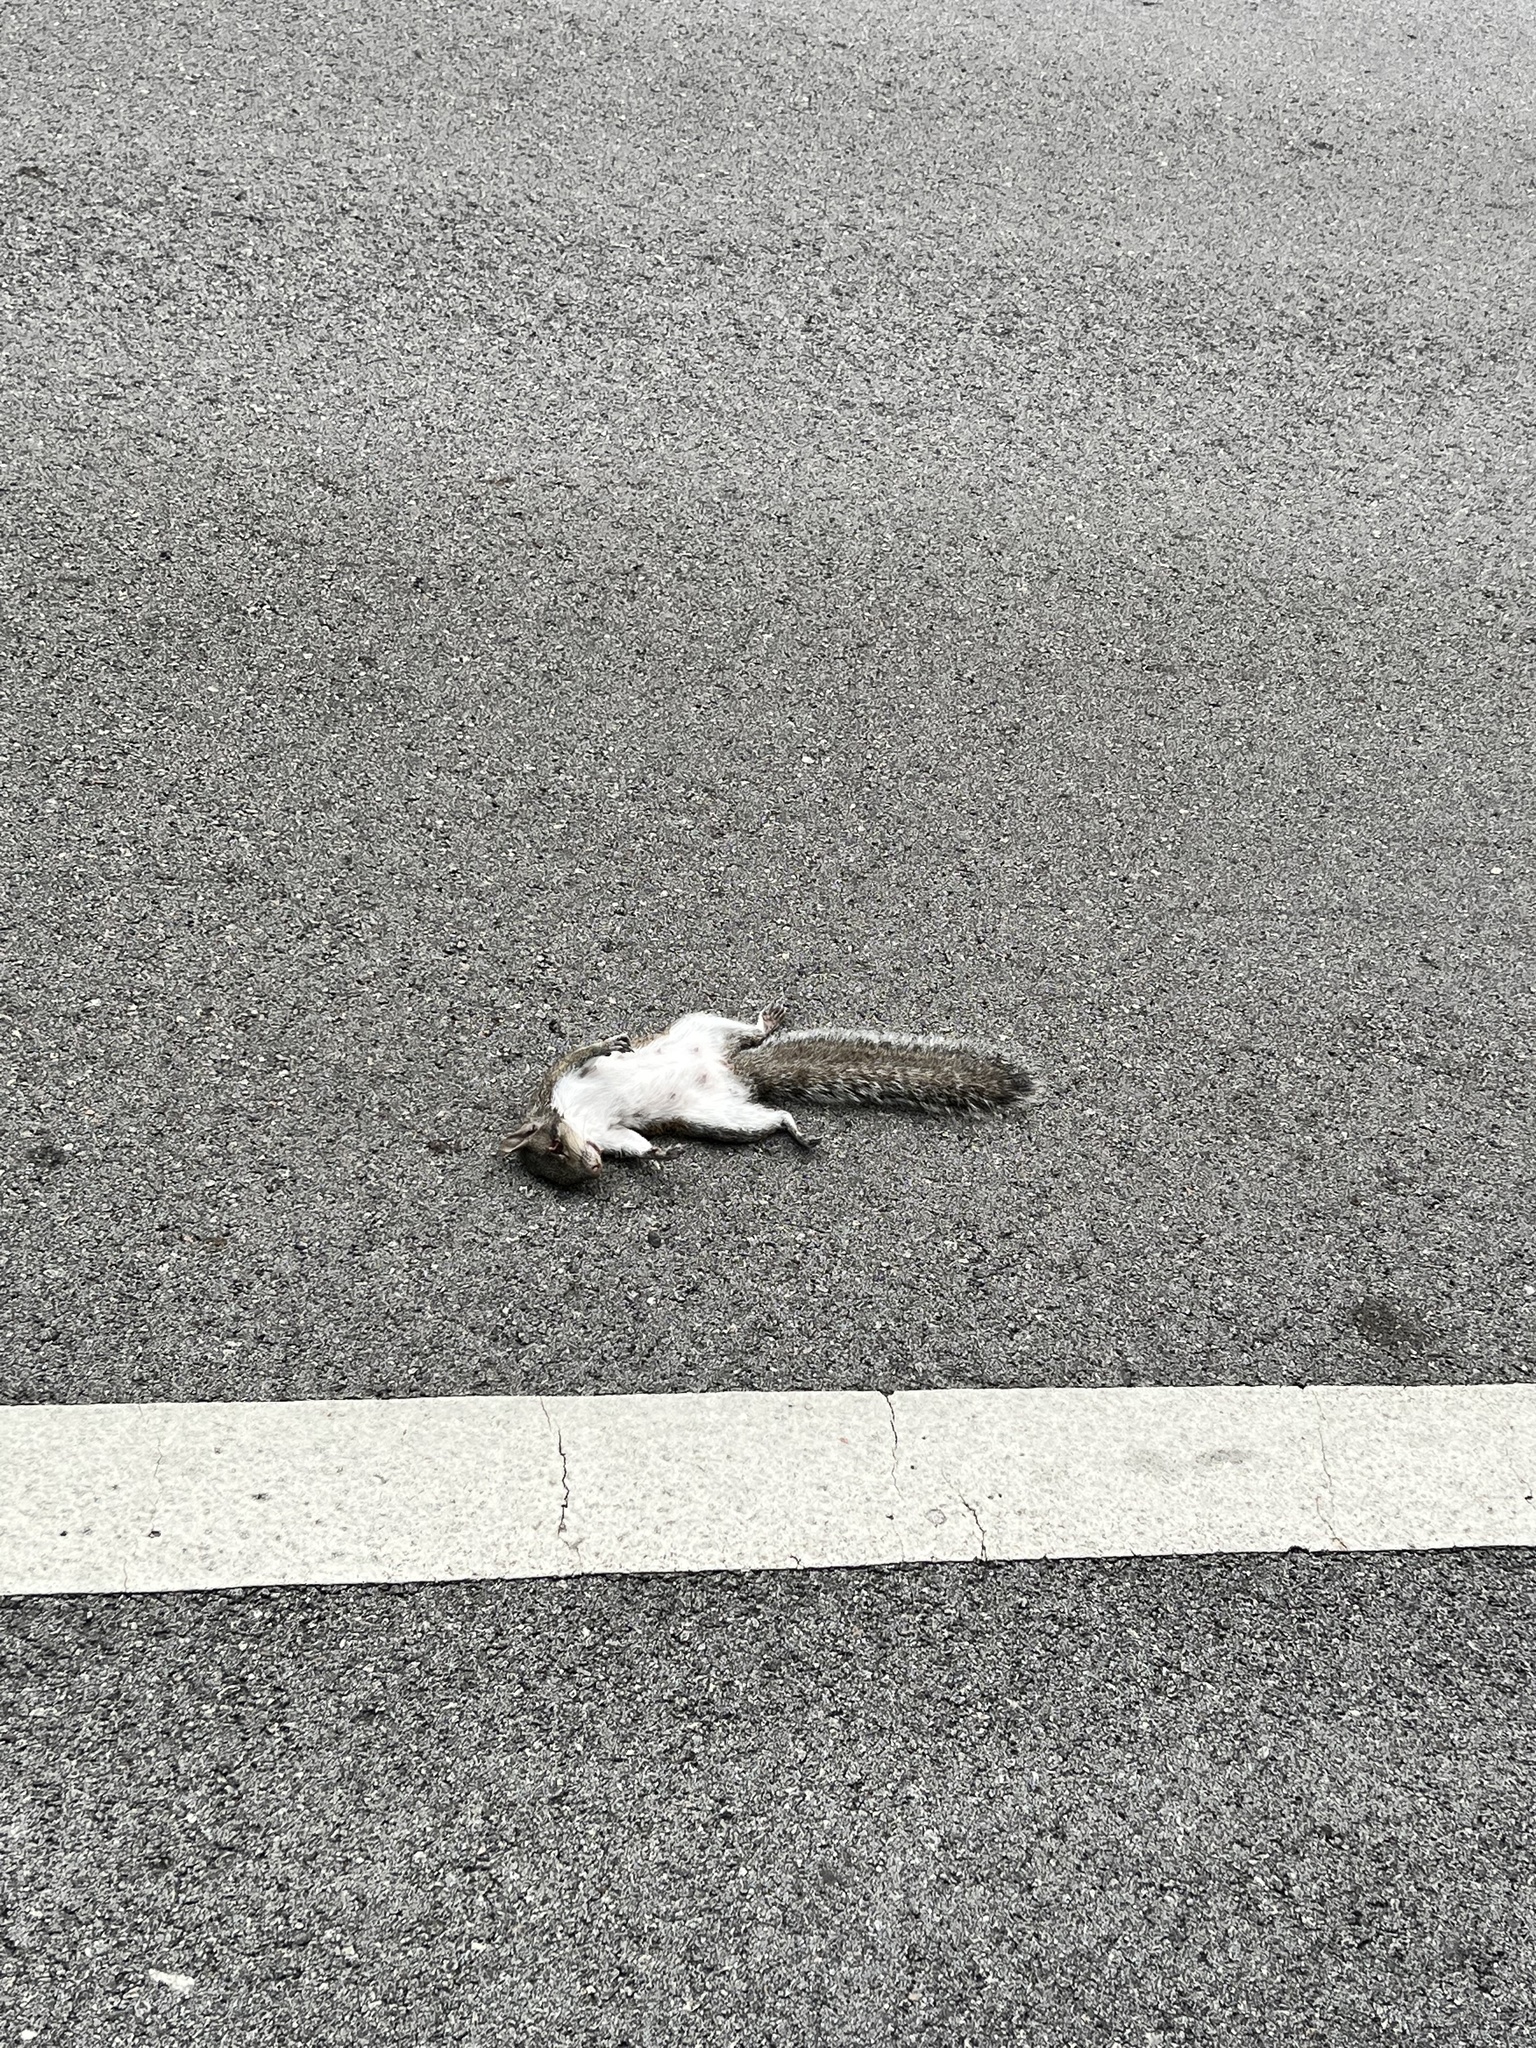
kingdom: Animalia
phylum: Chordata
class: Mammalia
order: Rodentia
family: Sciuridae
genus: Sciurus
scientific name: Sciurus carolinensis
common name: Eastern gray squirrel
